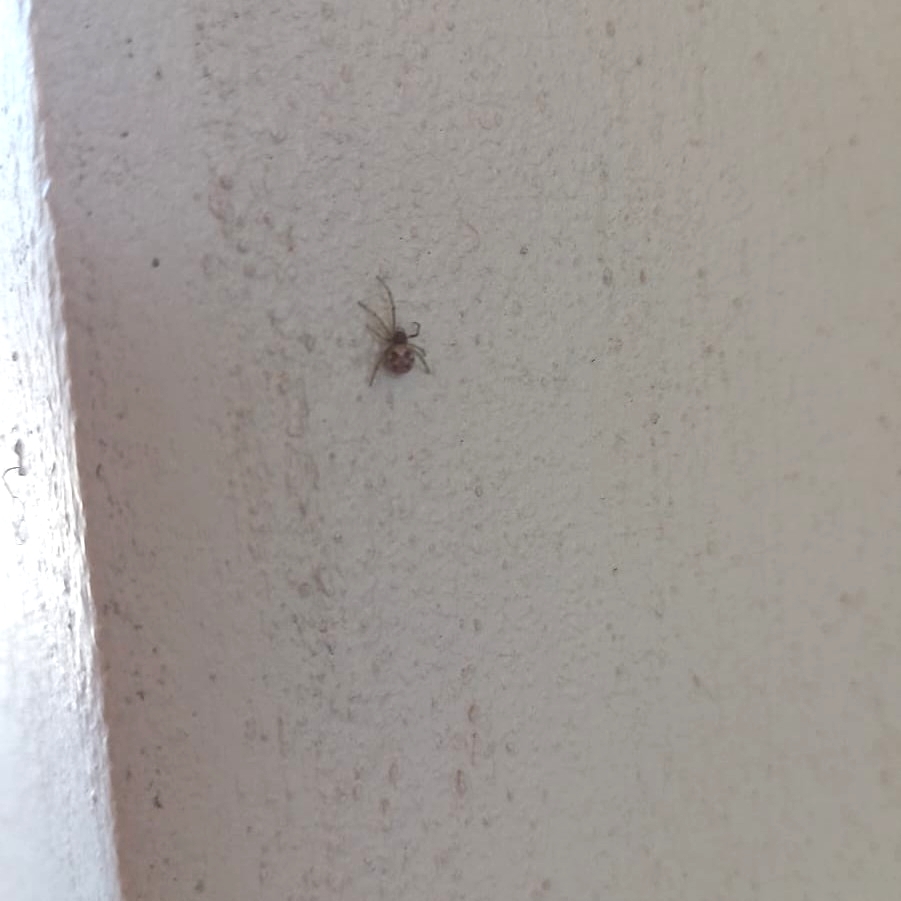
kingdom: Animalia
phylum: Arthropoda
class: Arachnida
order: Araneae
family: Theridiidae
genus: Steatoda
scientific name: Steatoda triangulosa
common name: Triangulate bud spider
